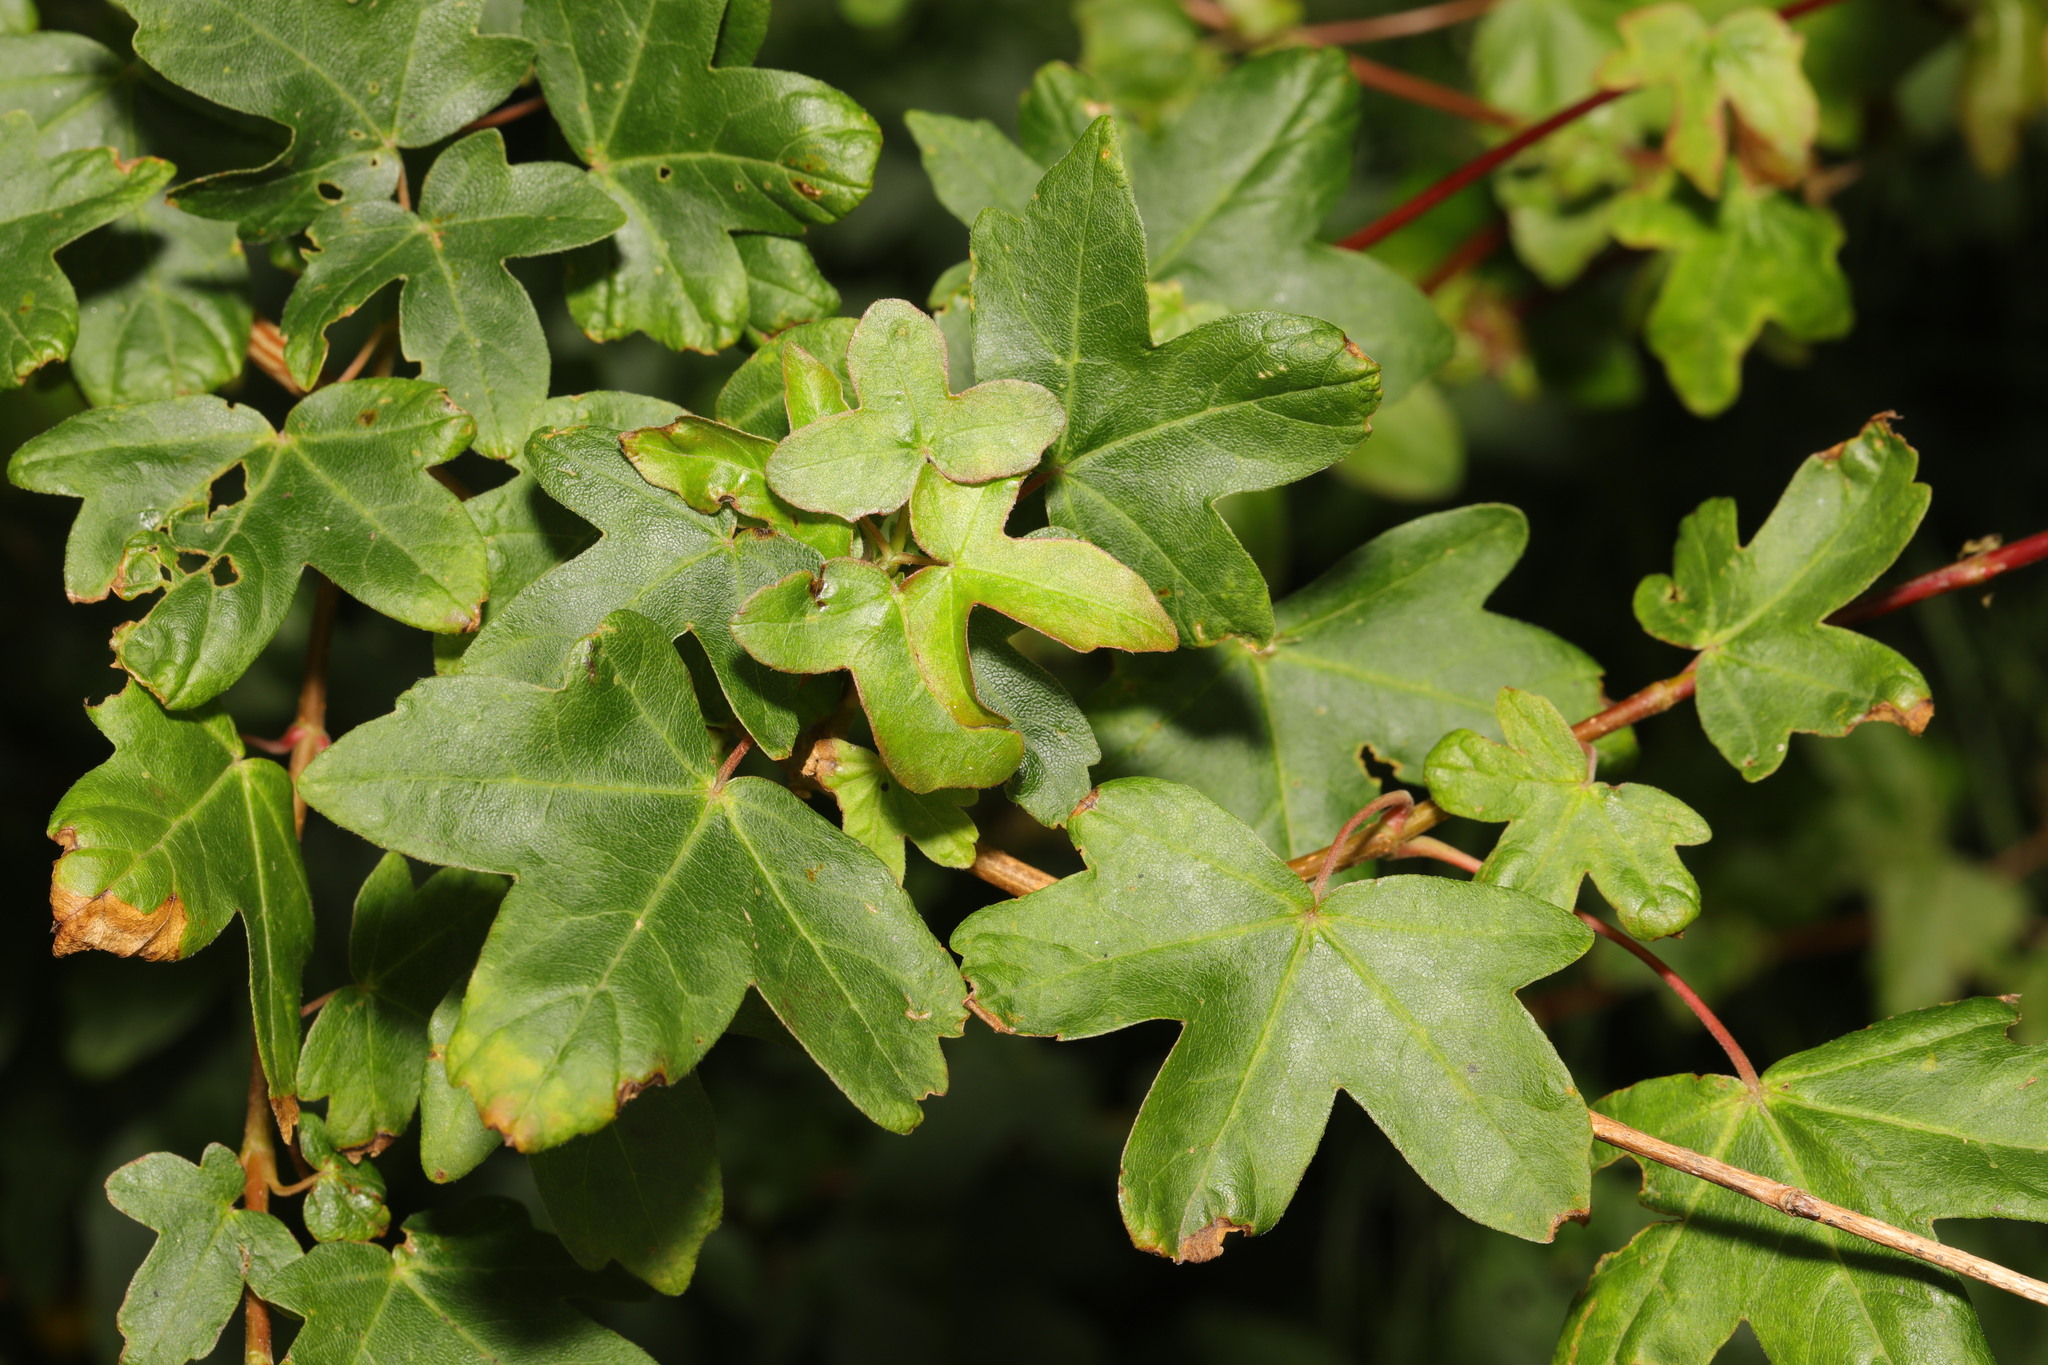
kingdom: Plantae
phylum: Tracheophyta
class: Magnoliopsida
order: Sapindales
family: Sapindaceae
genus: Acer
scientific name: Acer campestre
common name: Field maple
